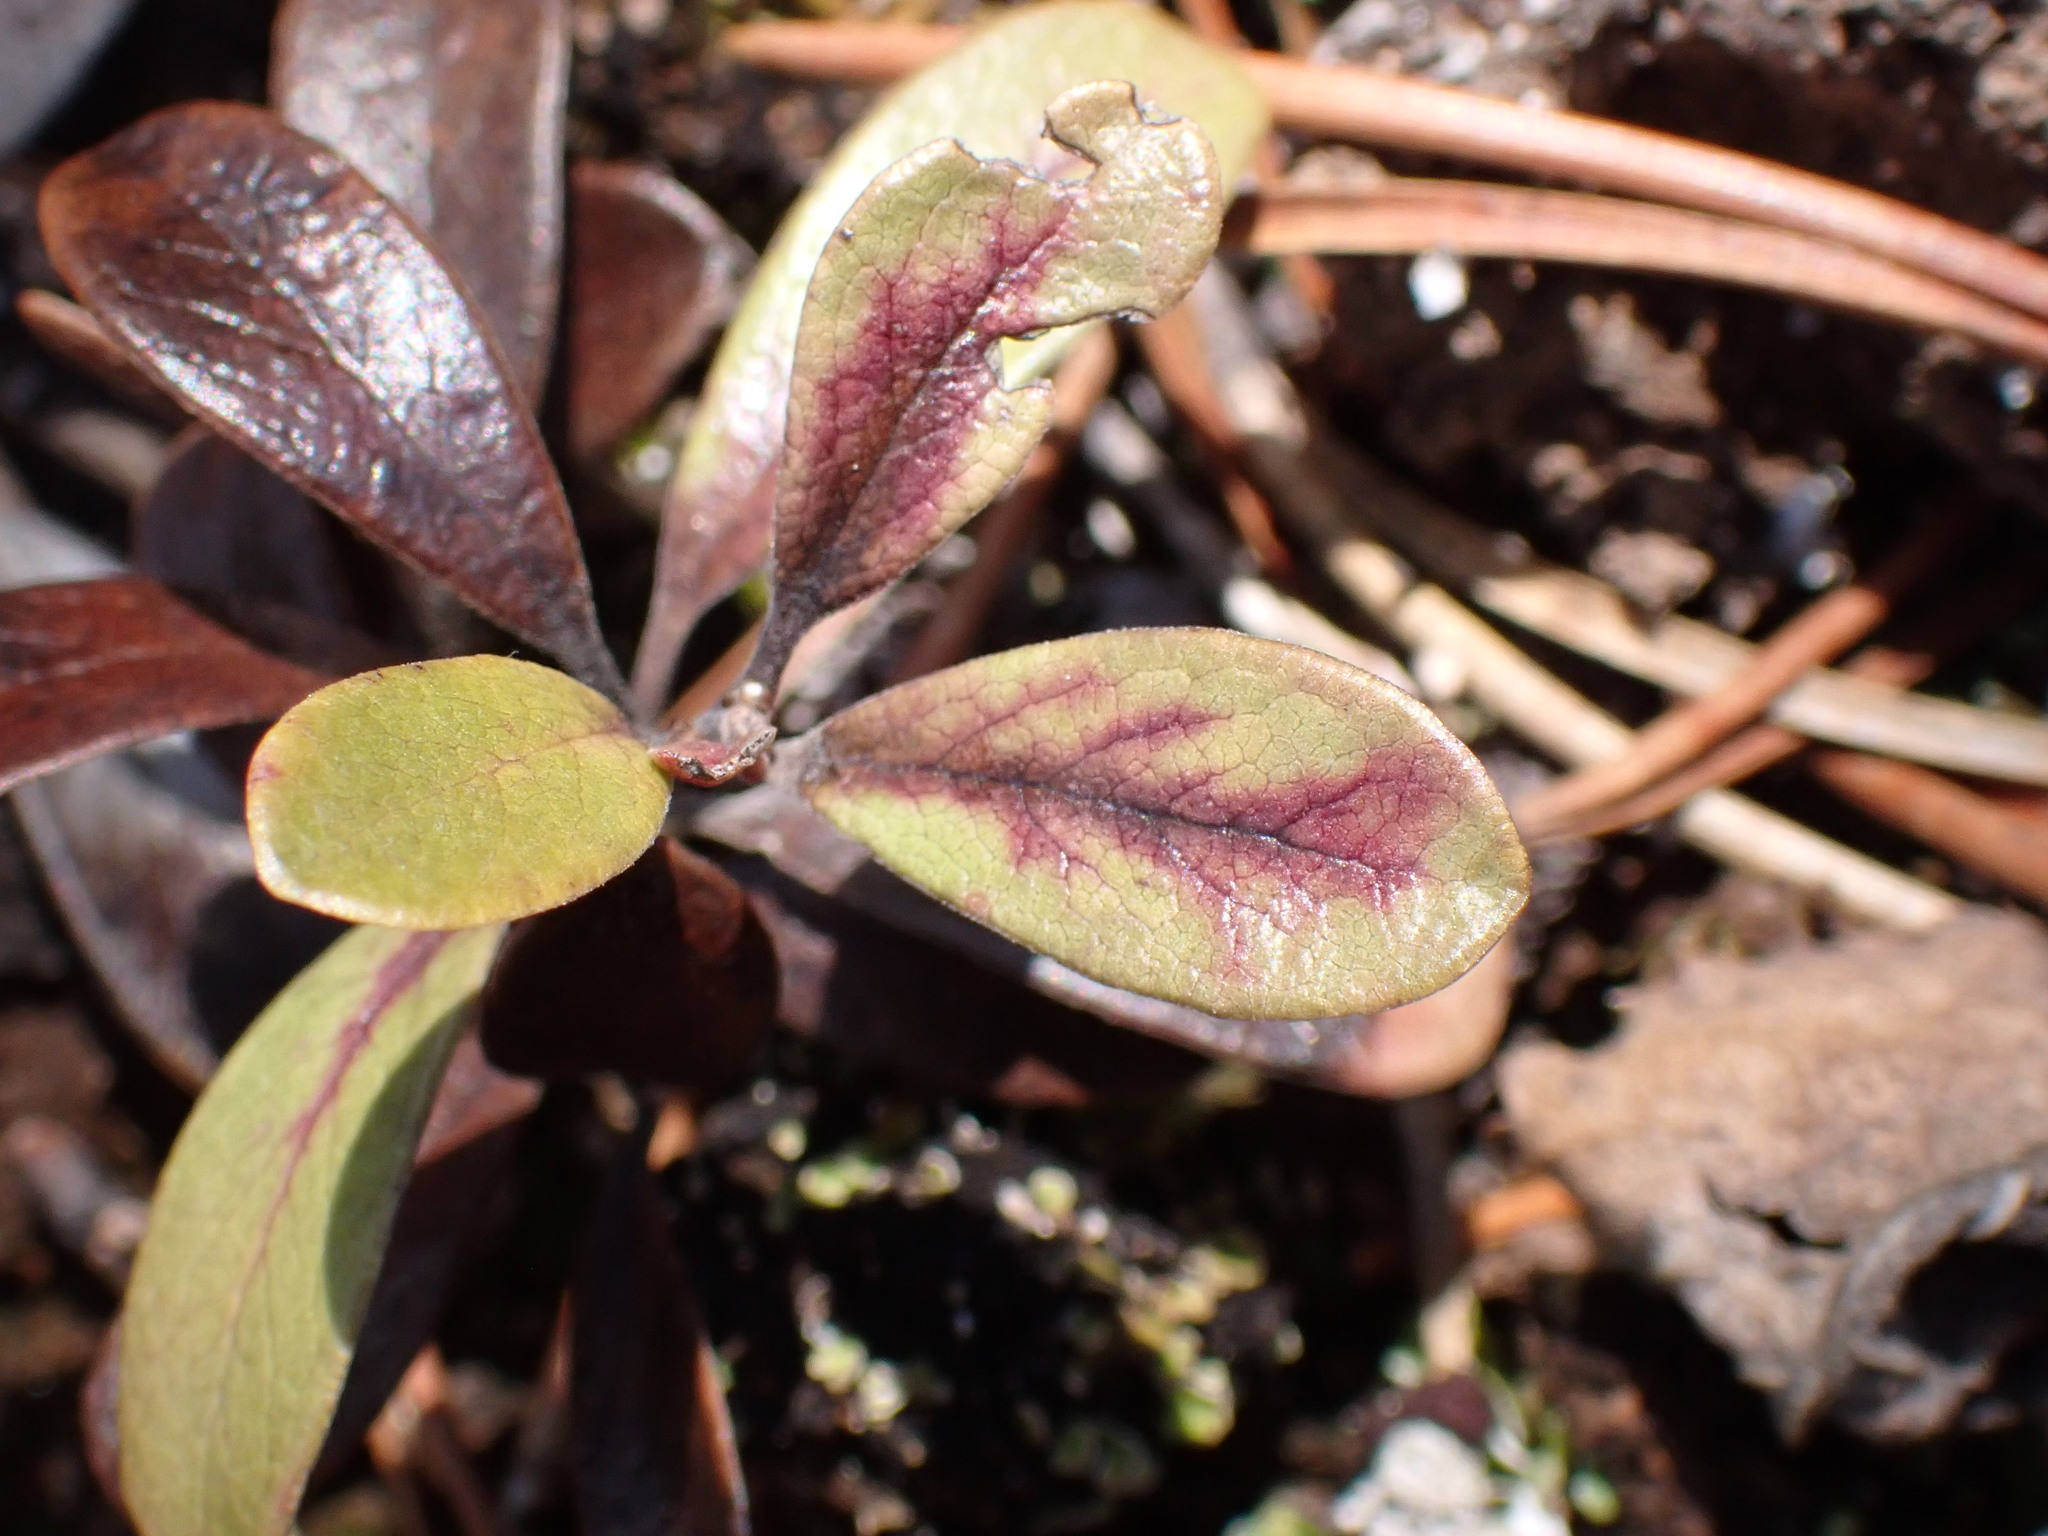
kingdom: Plantae
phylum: Tracheophyta
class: Magnoliopsida
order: Ericales
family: Ericaceae
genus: Arctostaphylos
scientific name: Arctostaphylos uva-ursi
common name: Bearberry
